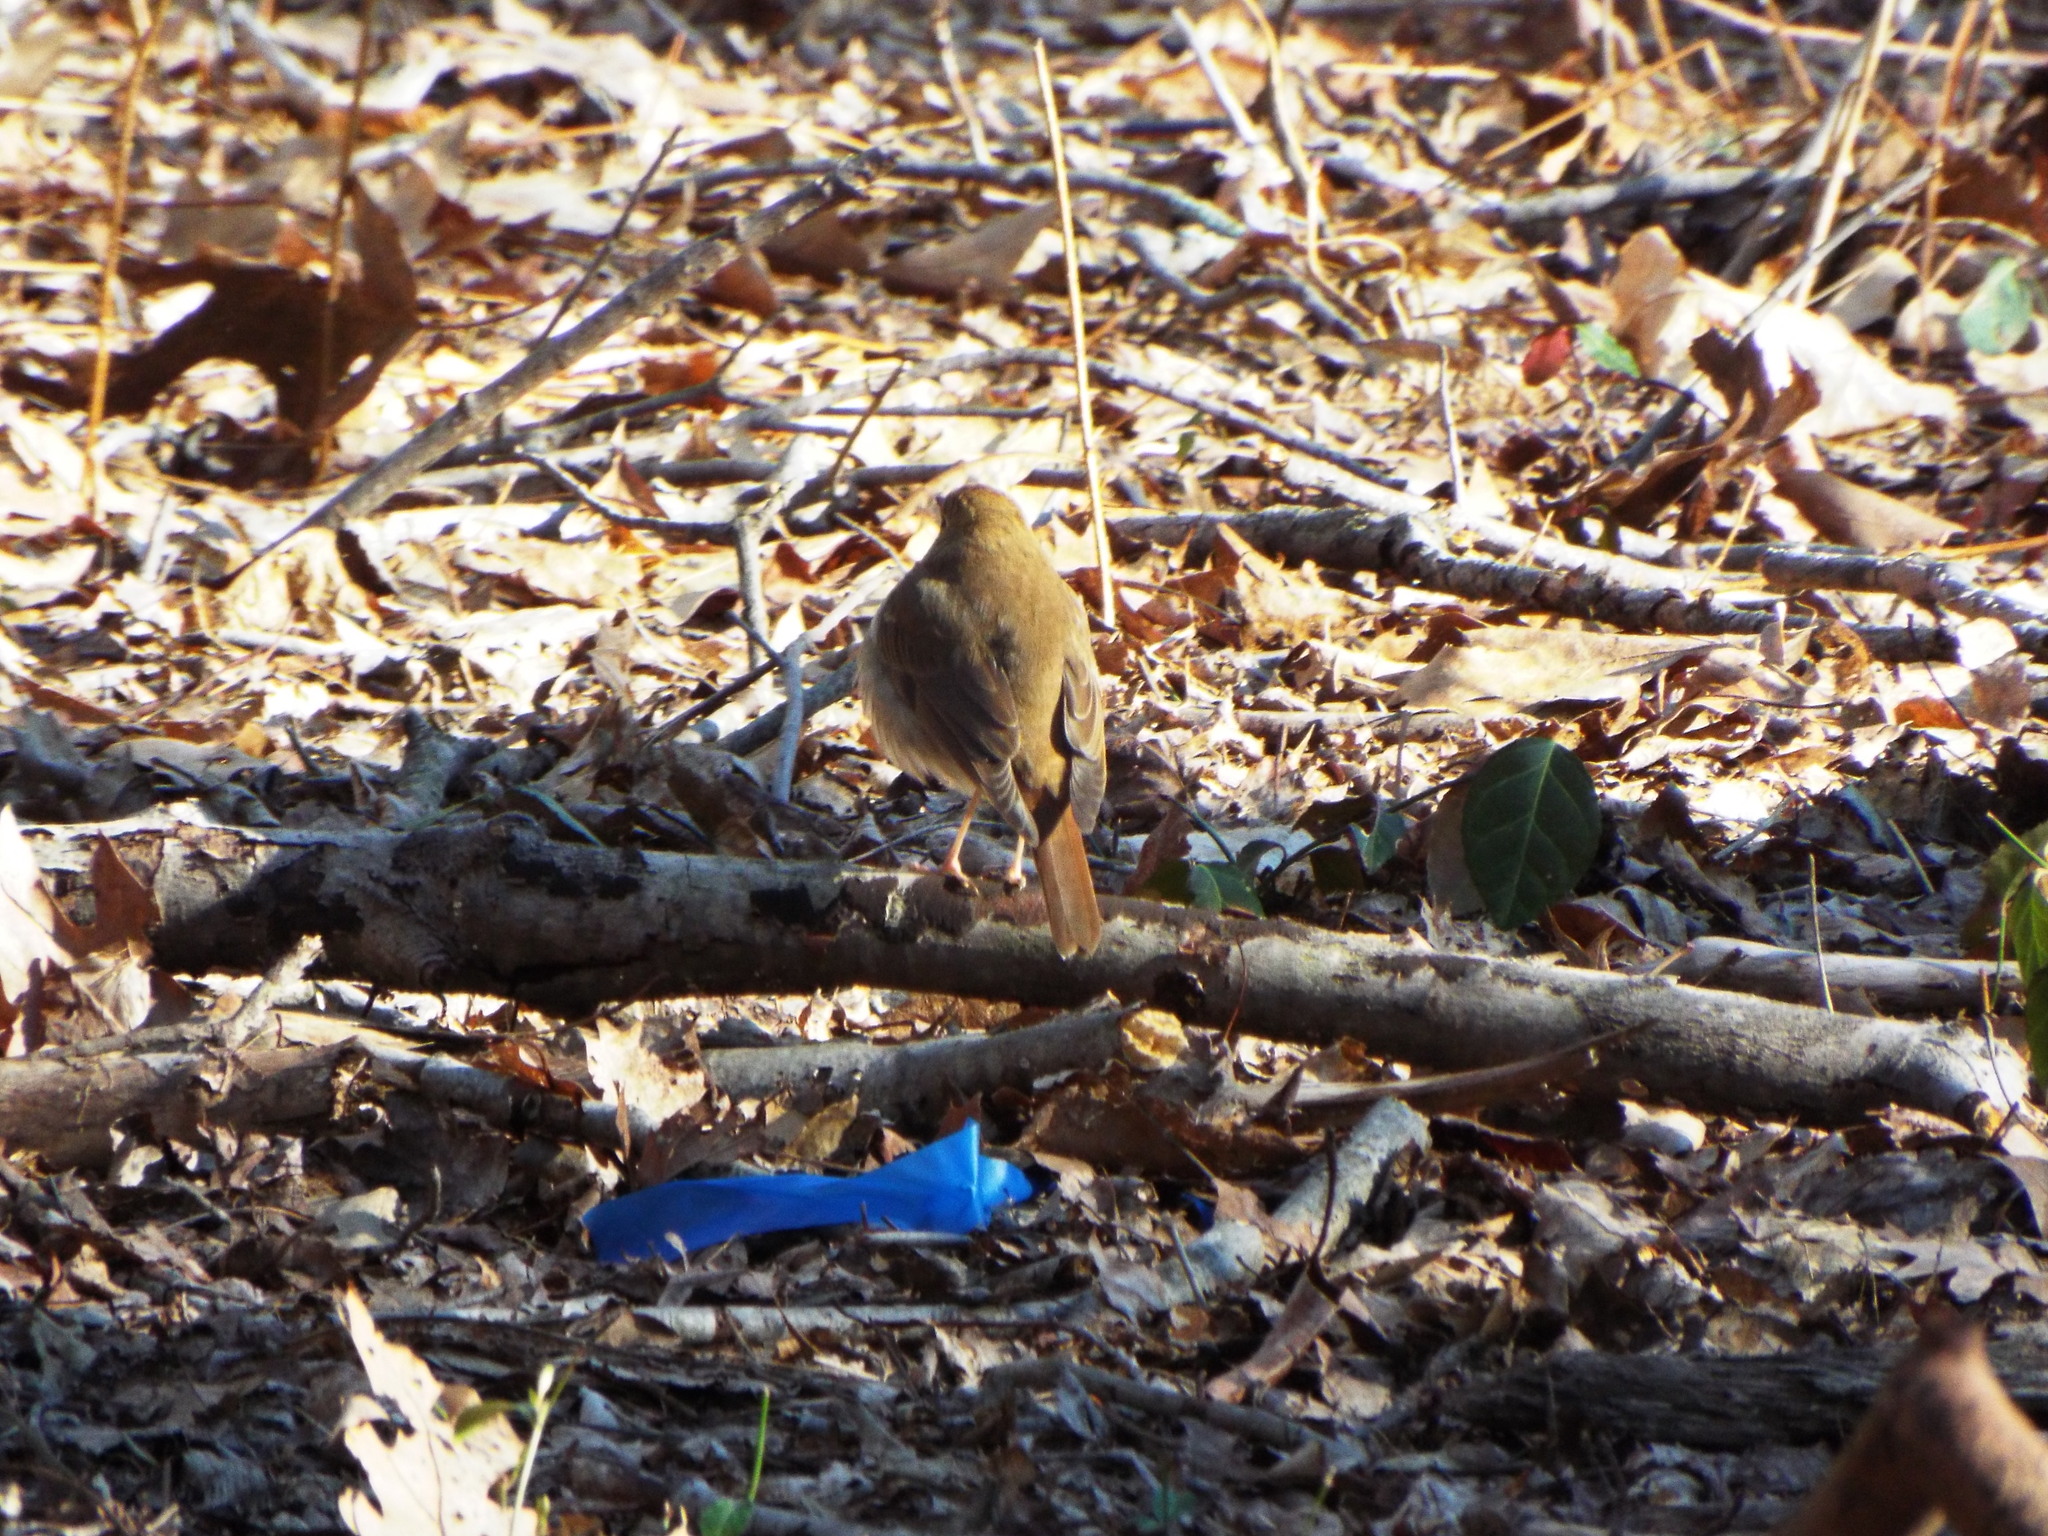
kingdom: Animalia
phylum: Chordata
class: Aves
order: Passeriformes
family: Turdidae
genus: Catharus
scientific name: Catharus guttatus
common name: Hermit thrush
